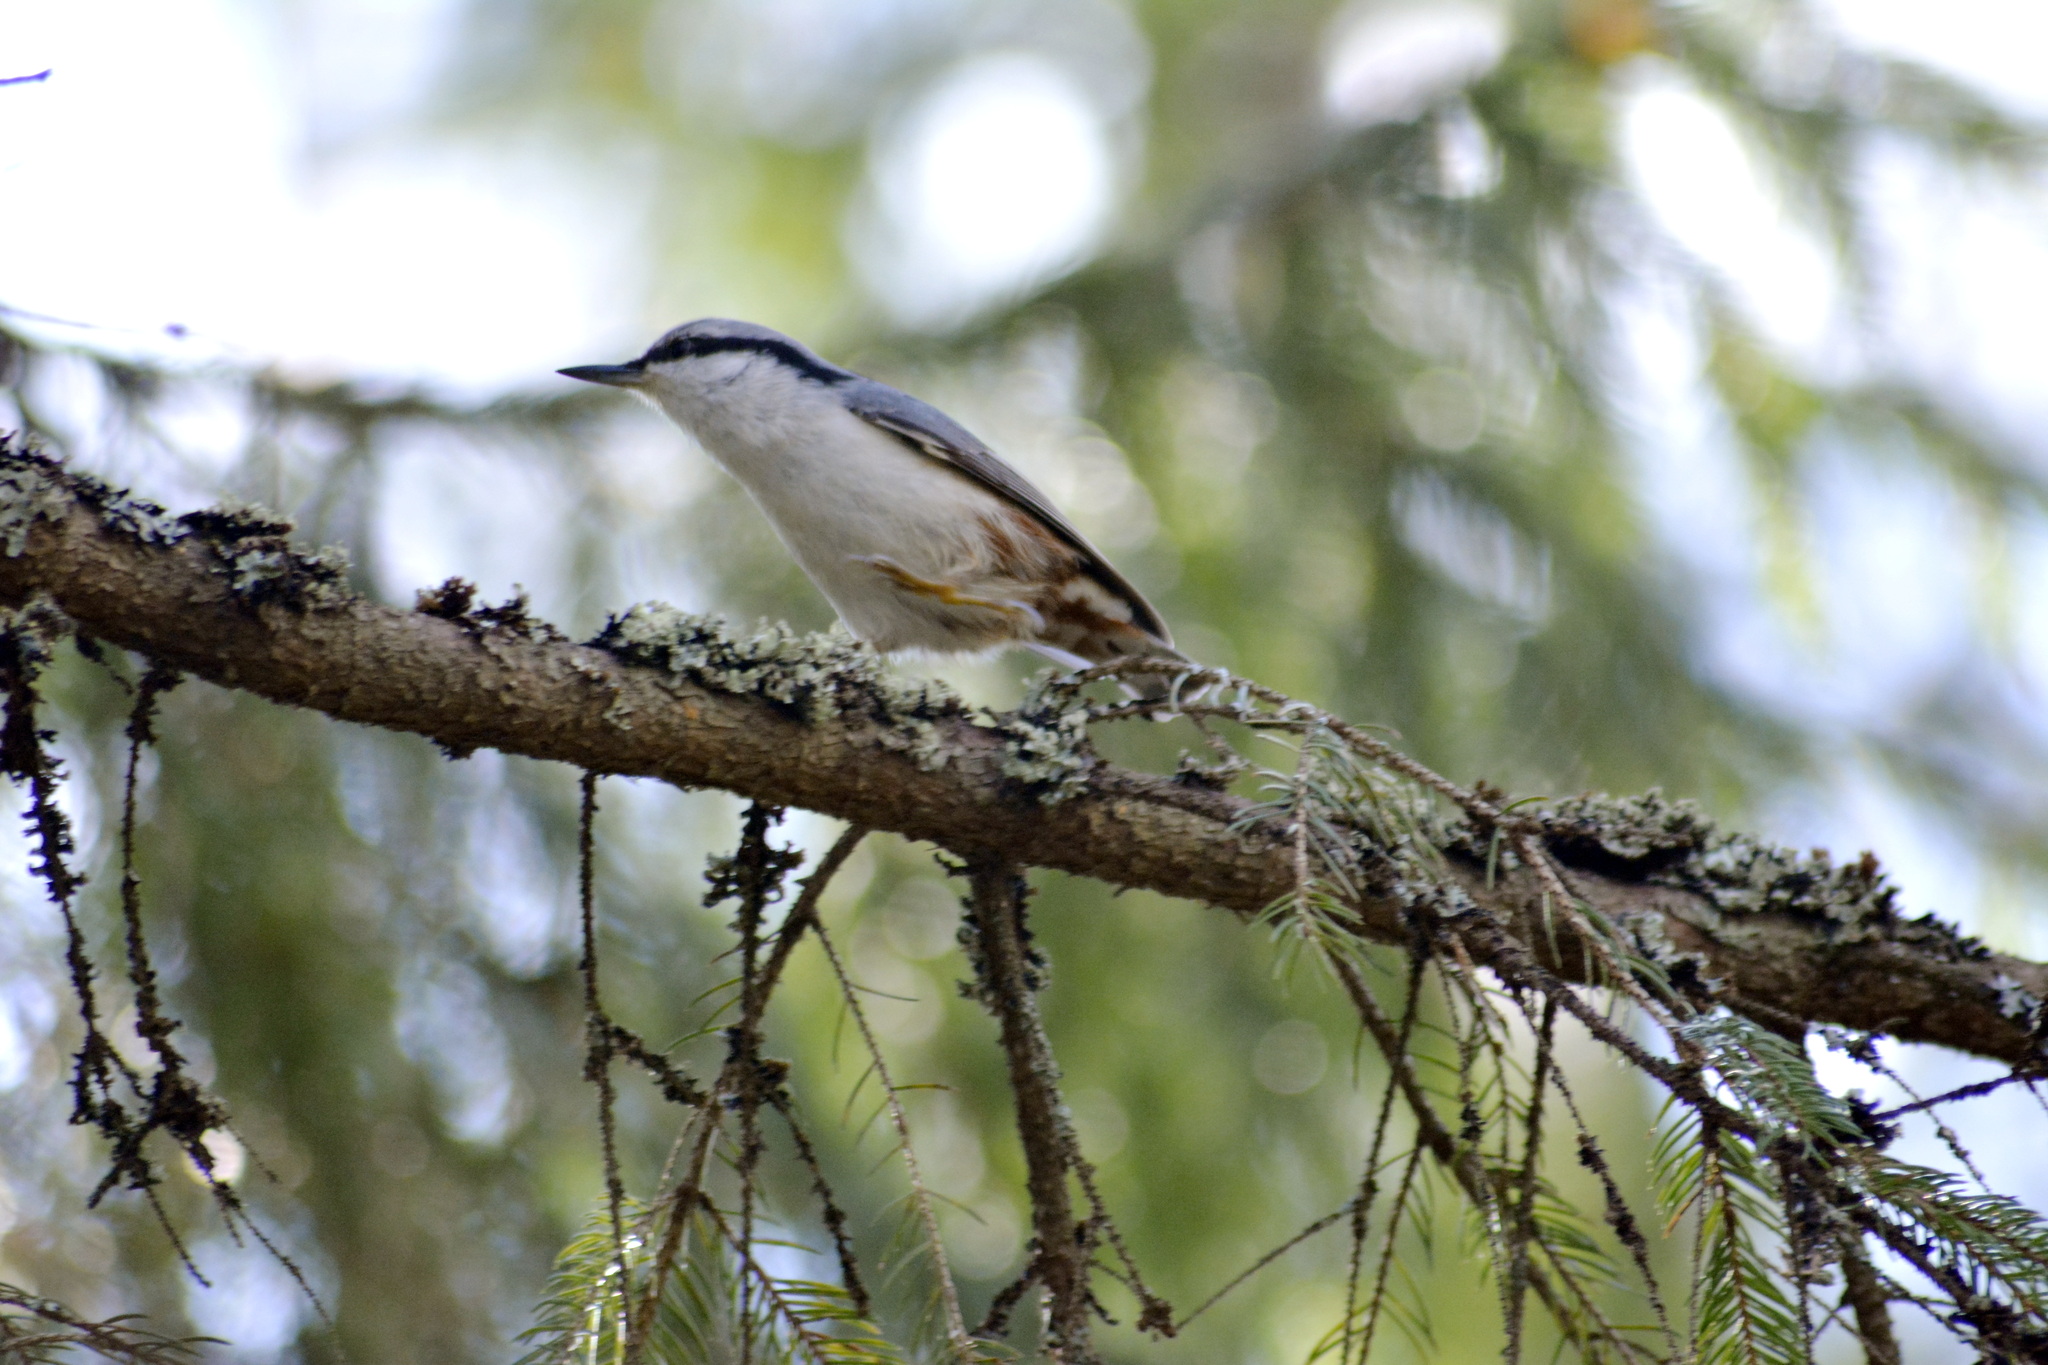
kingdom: Animalia
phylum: Chordata
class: Aves
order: Passeriformes
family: Sittidae
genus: Sitta
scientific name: Sitta europaea
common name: Eurasian nuthatch
